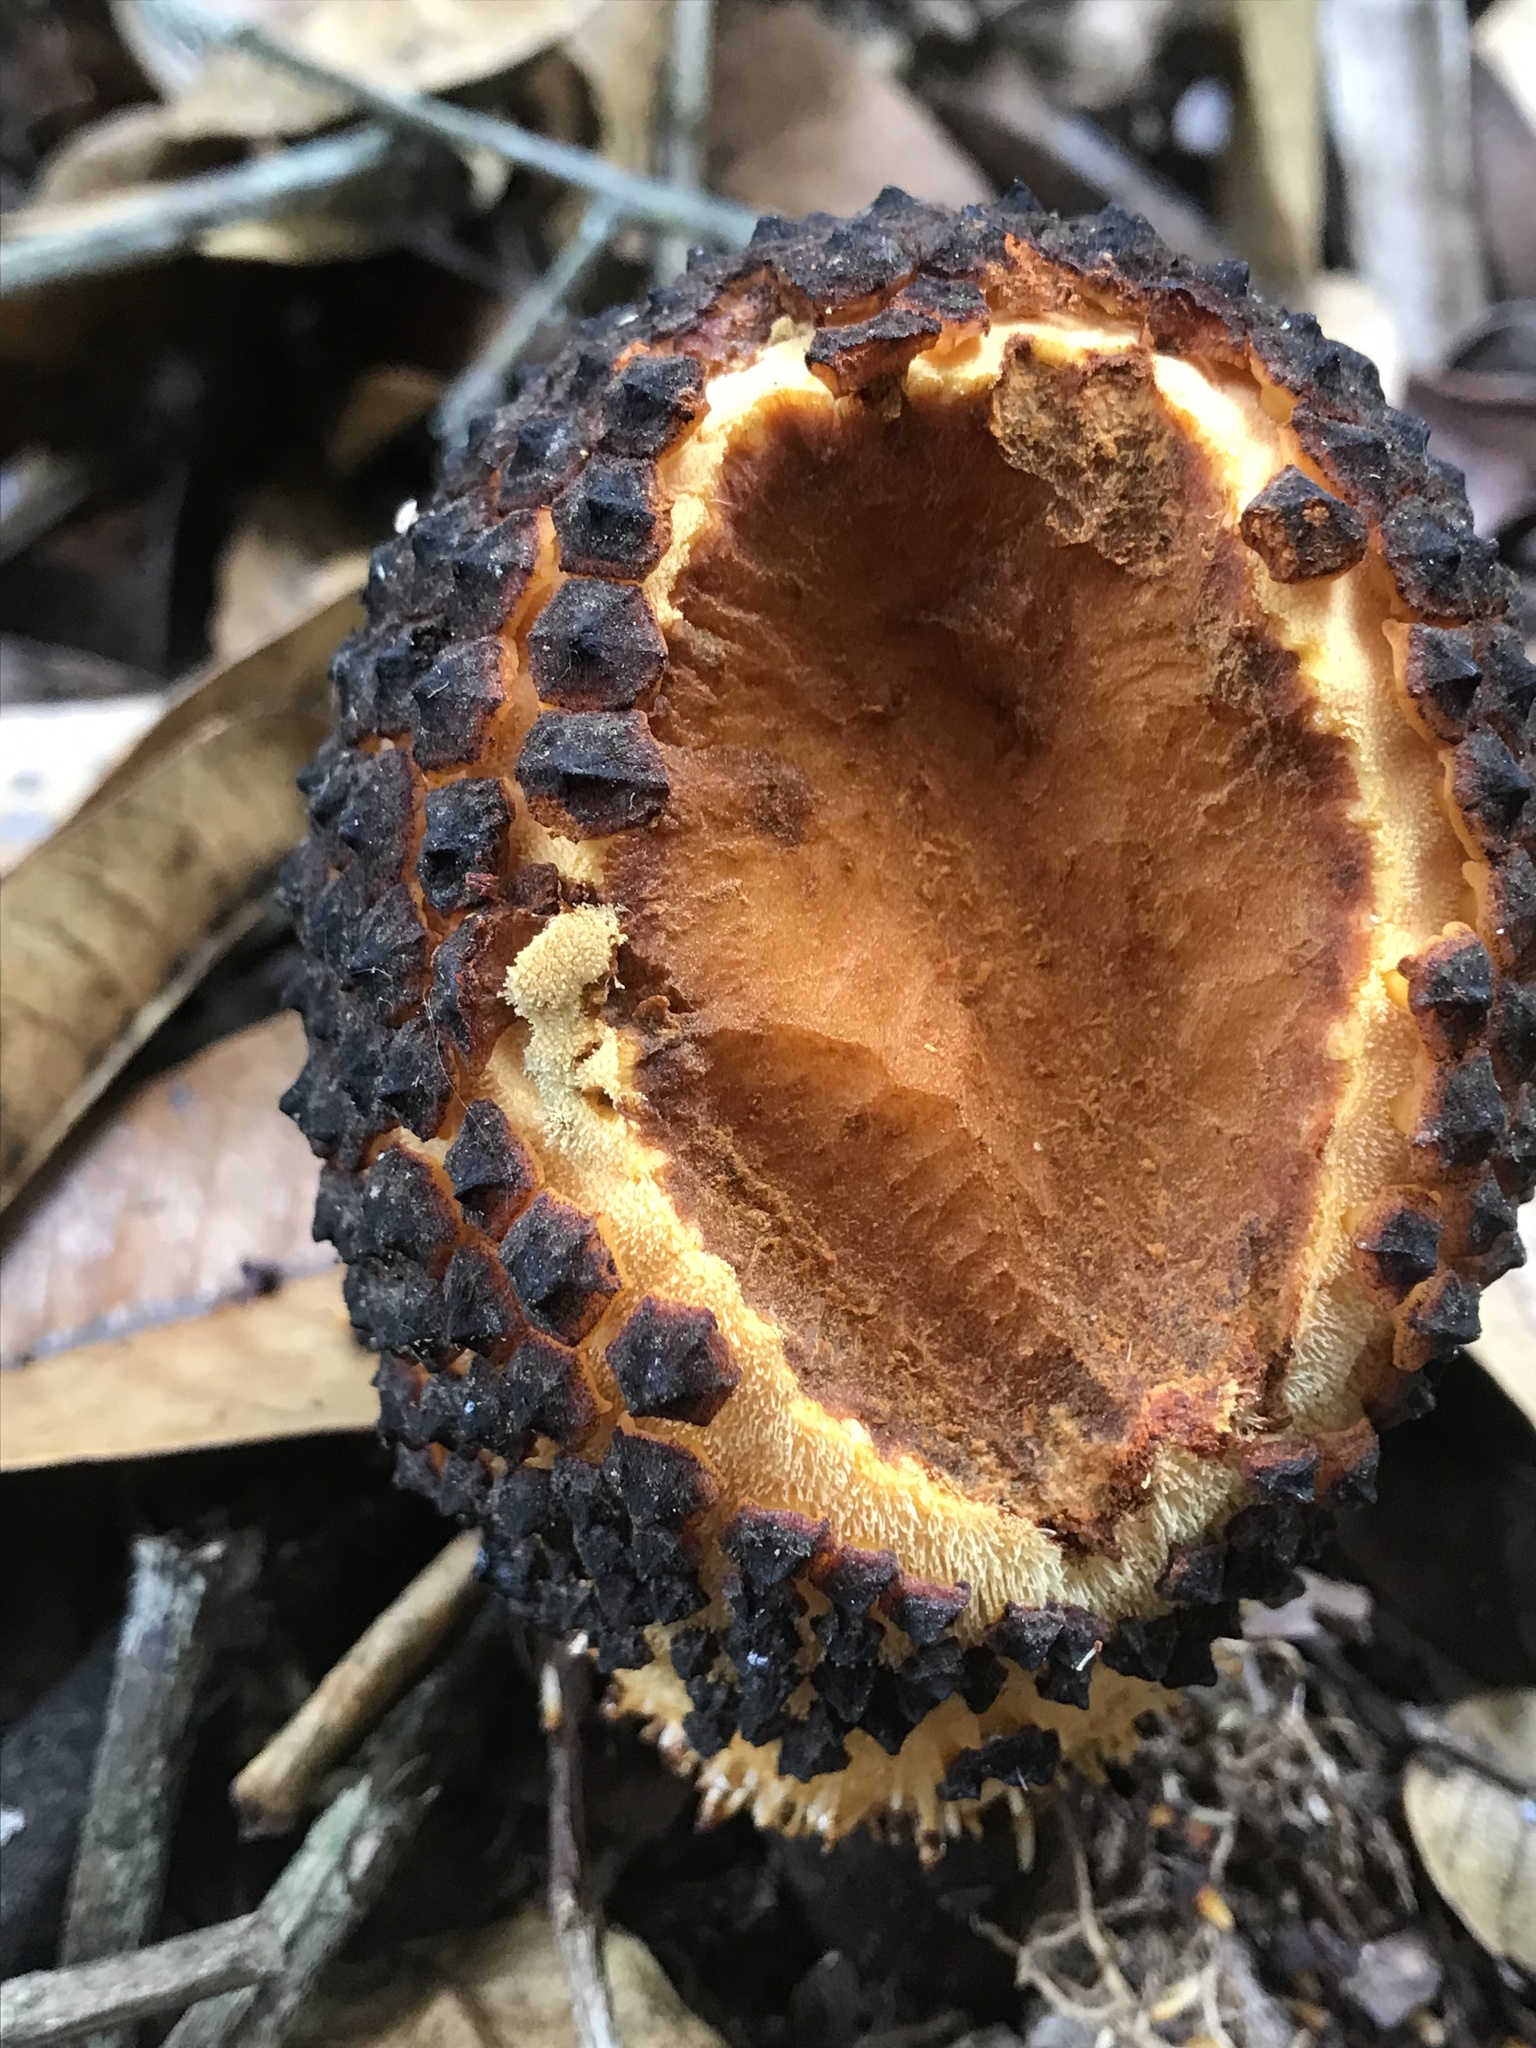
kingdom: Plantae
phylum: Tracheophyta
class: Magnoliopsida
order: Santalales
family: Balanophoraceae
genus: Corynaea
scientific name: Corynaea crassa
